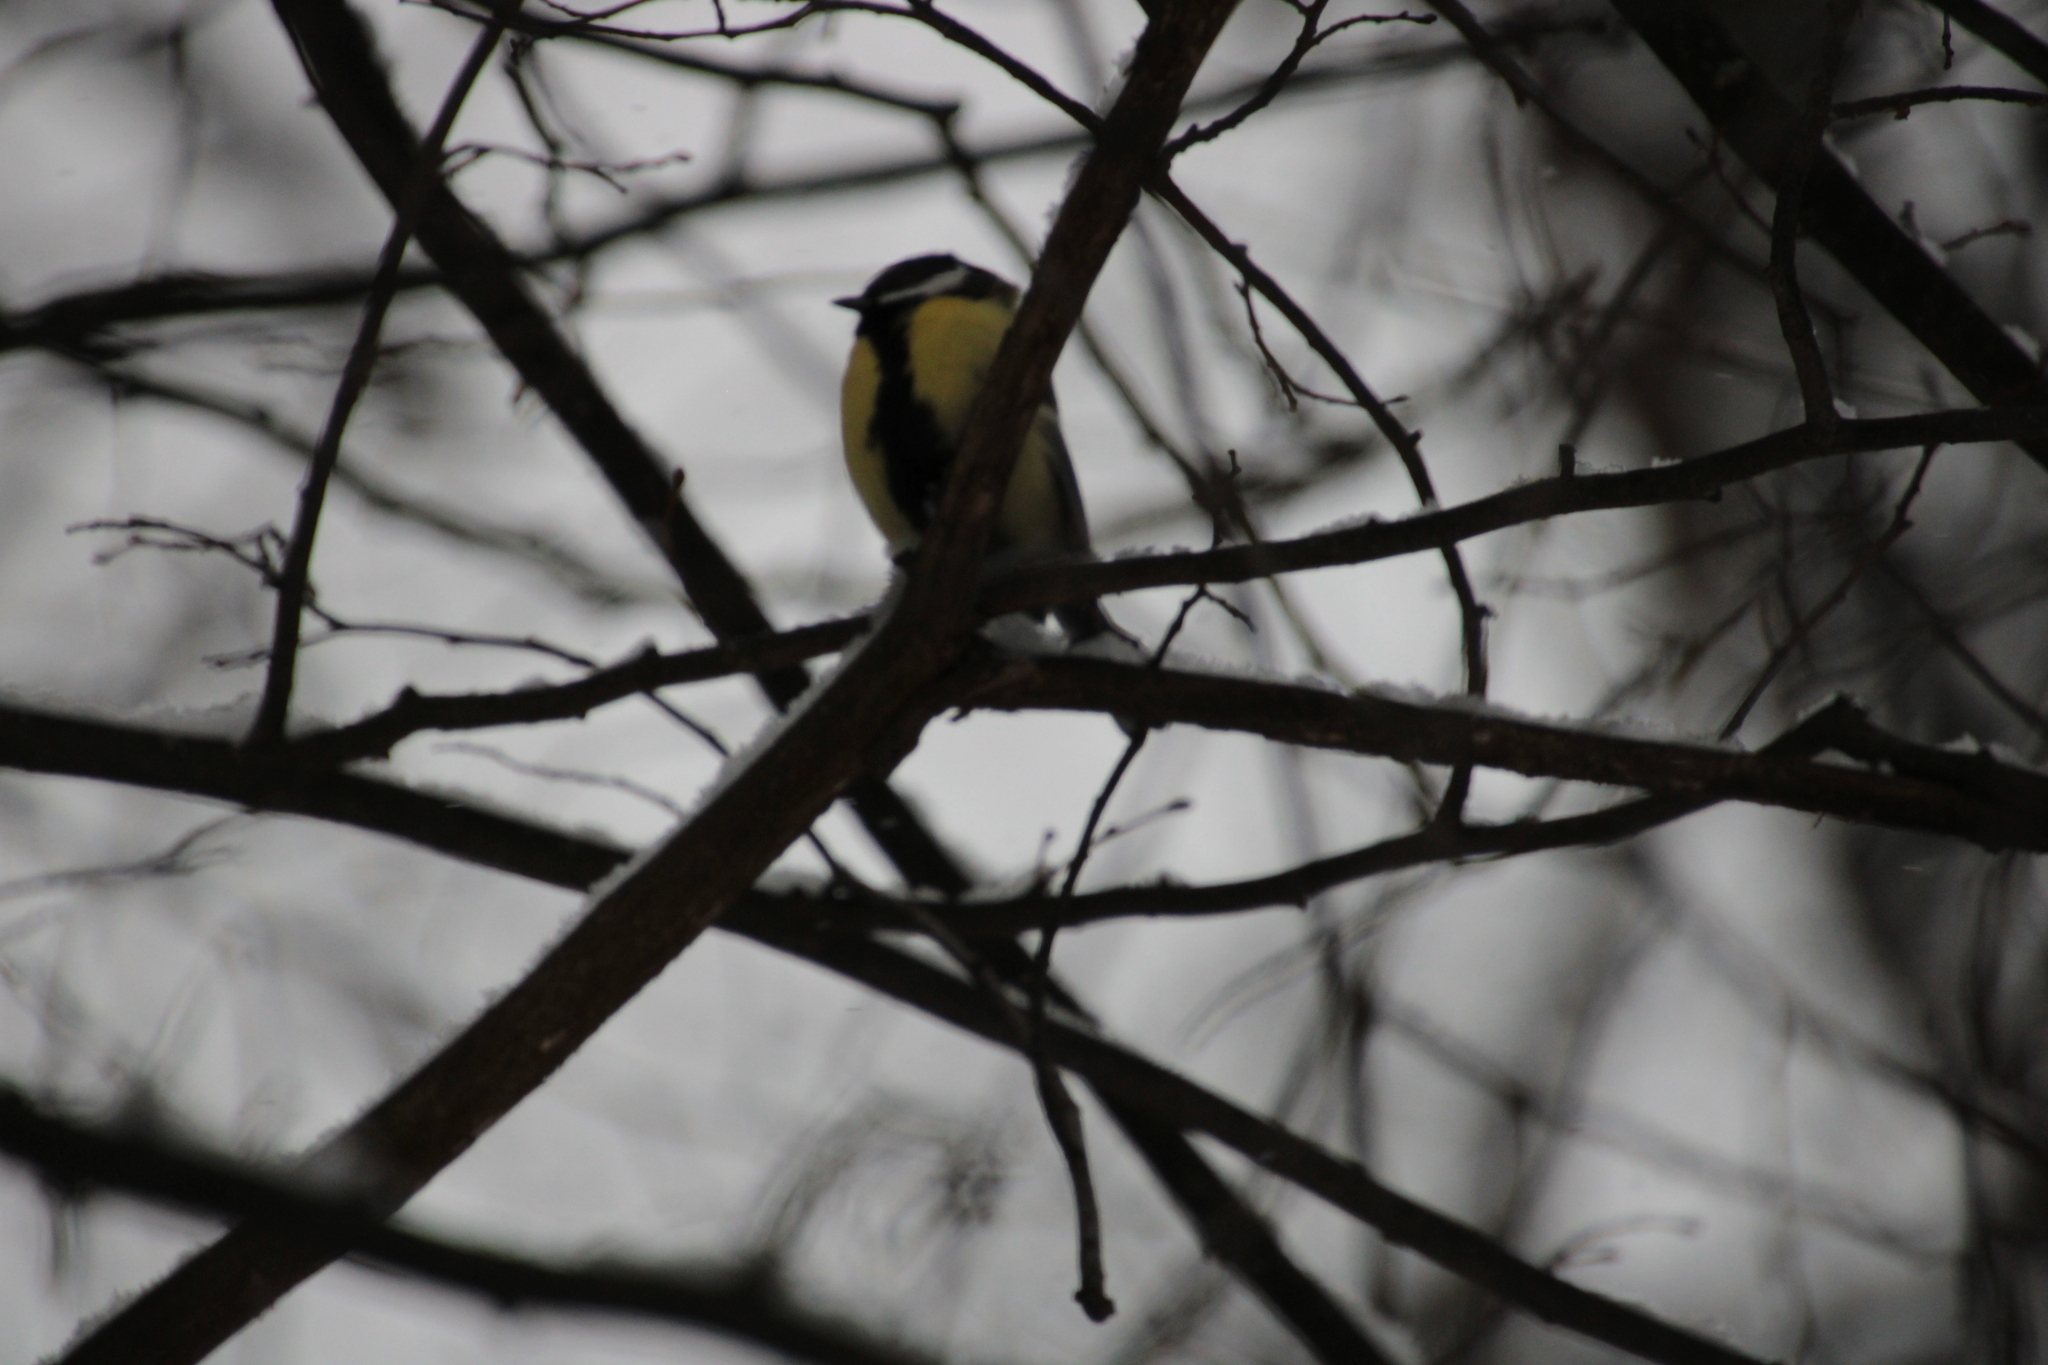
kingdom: Animalia
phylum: Chordata
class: Aves
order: Passeriformes
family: Paridae
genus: Parus
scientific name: Parus major
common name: Great tit
